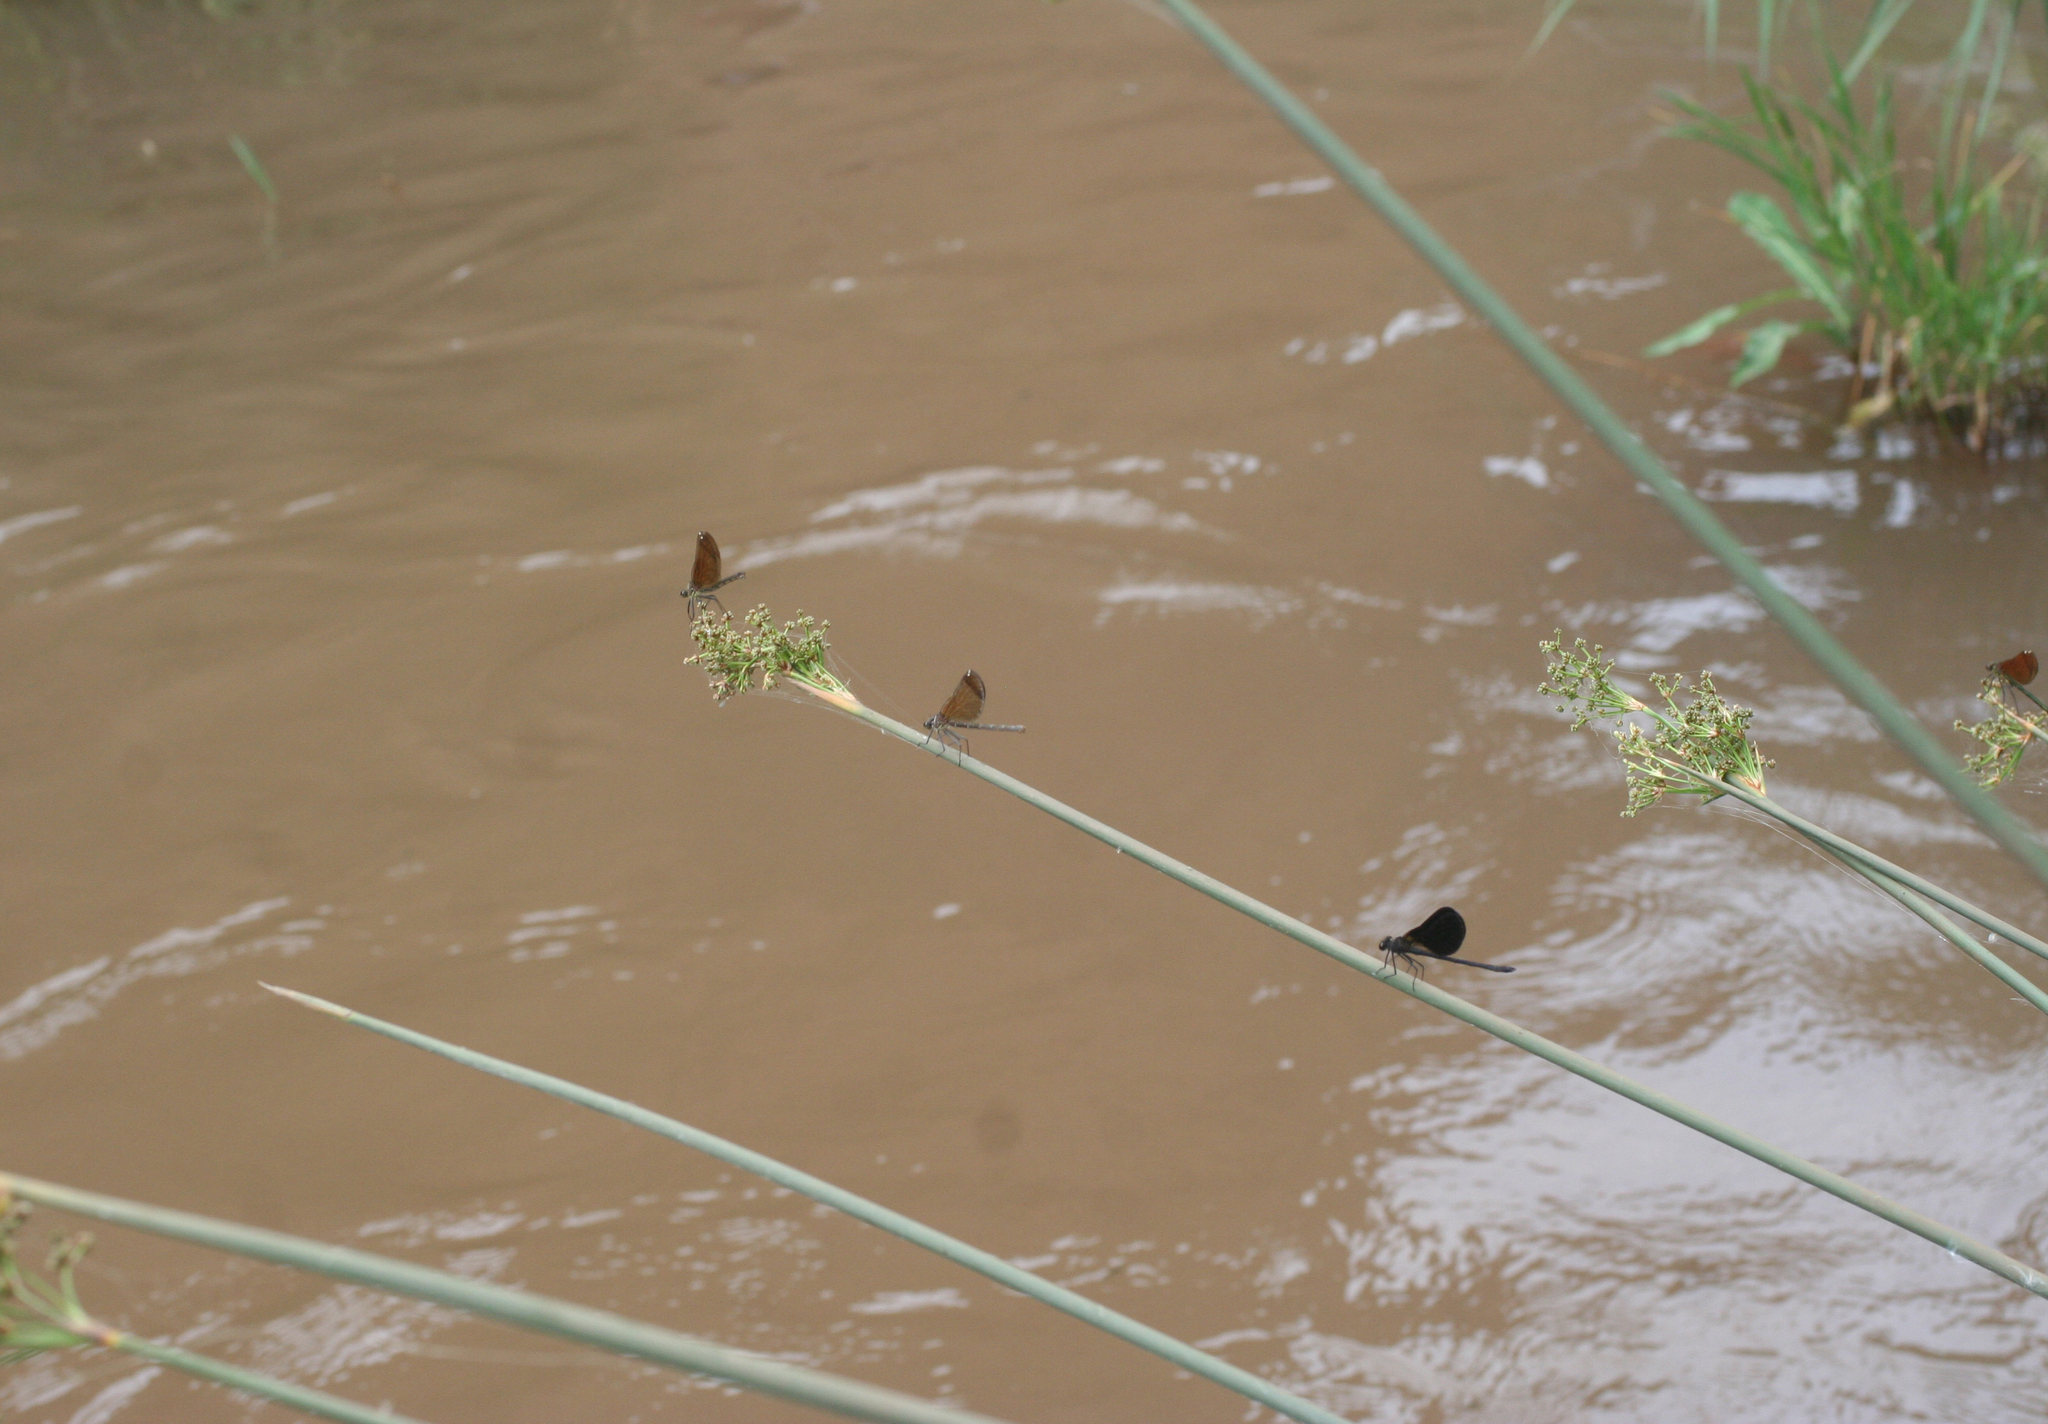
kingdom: Animalia
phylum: Arthropoda
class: Insecta
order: Odonata
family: Calopterygidae
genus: Calopteryx
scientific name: Calopteryx haemorrhoidalis
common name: Copper demoiselle
